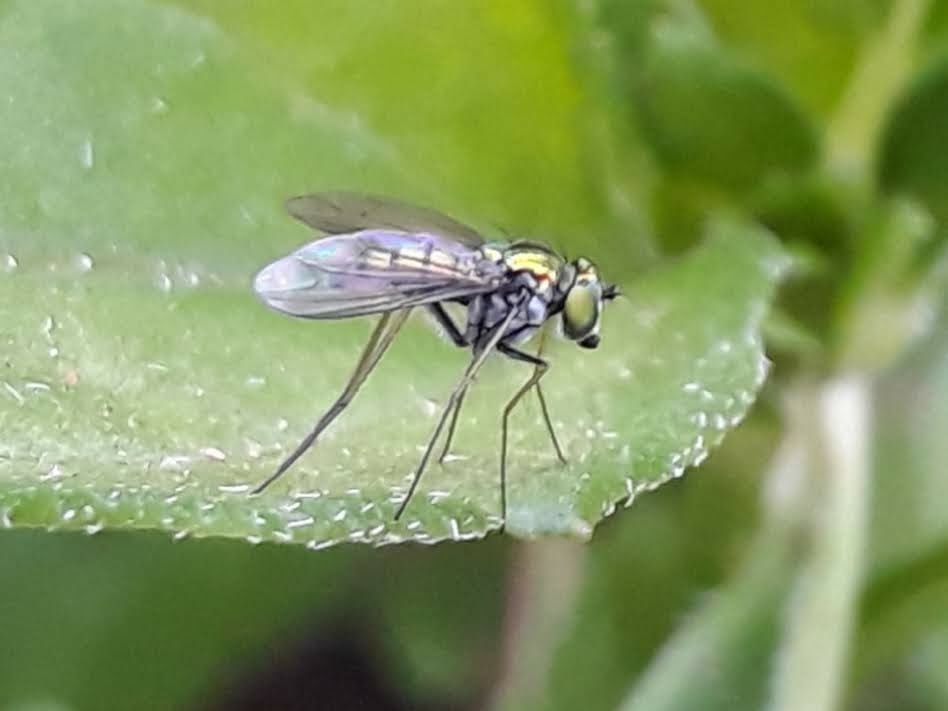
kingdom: Animalia
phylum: Arthropoda
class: Insecta
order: Diptera
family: Dolichopodidae
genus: Condylostylus
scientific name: Condylostylus
